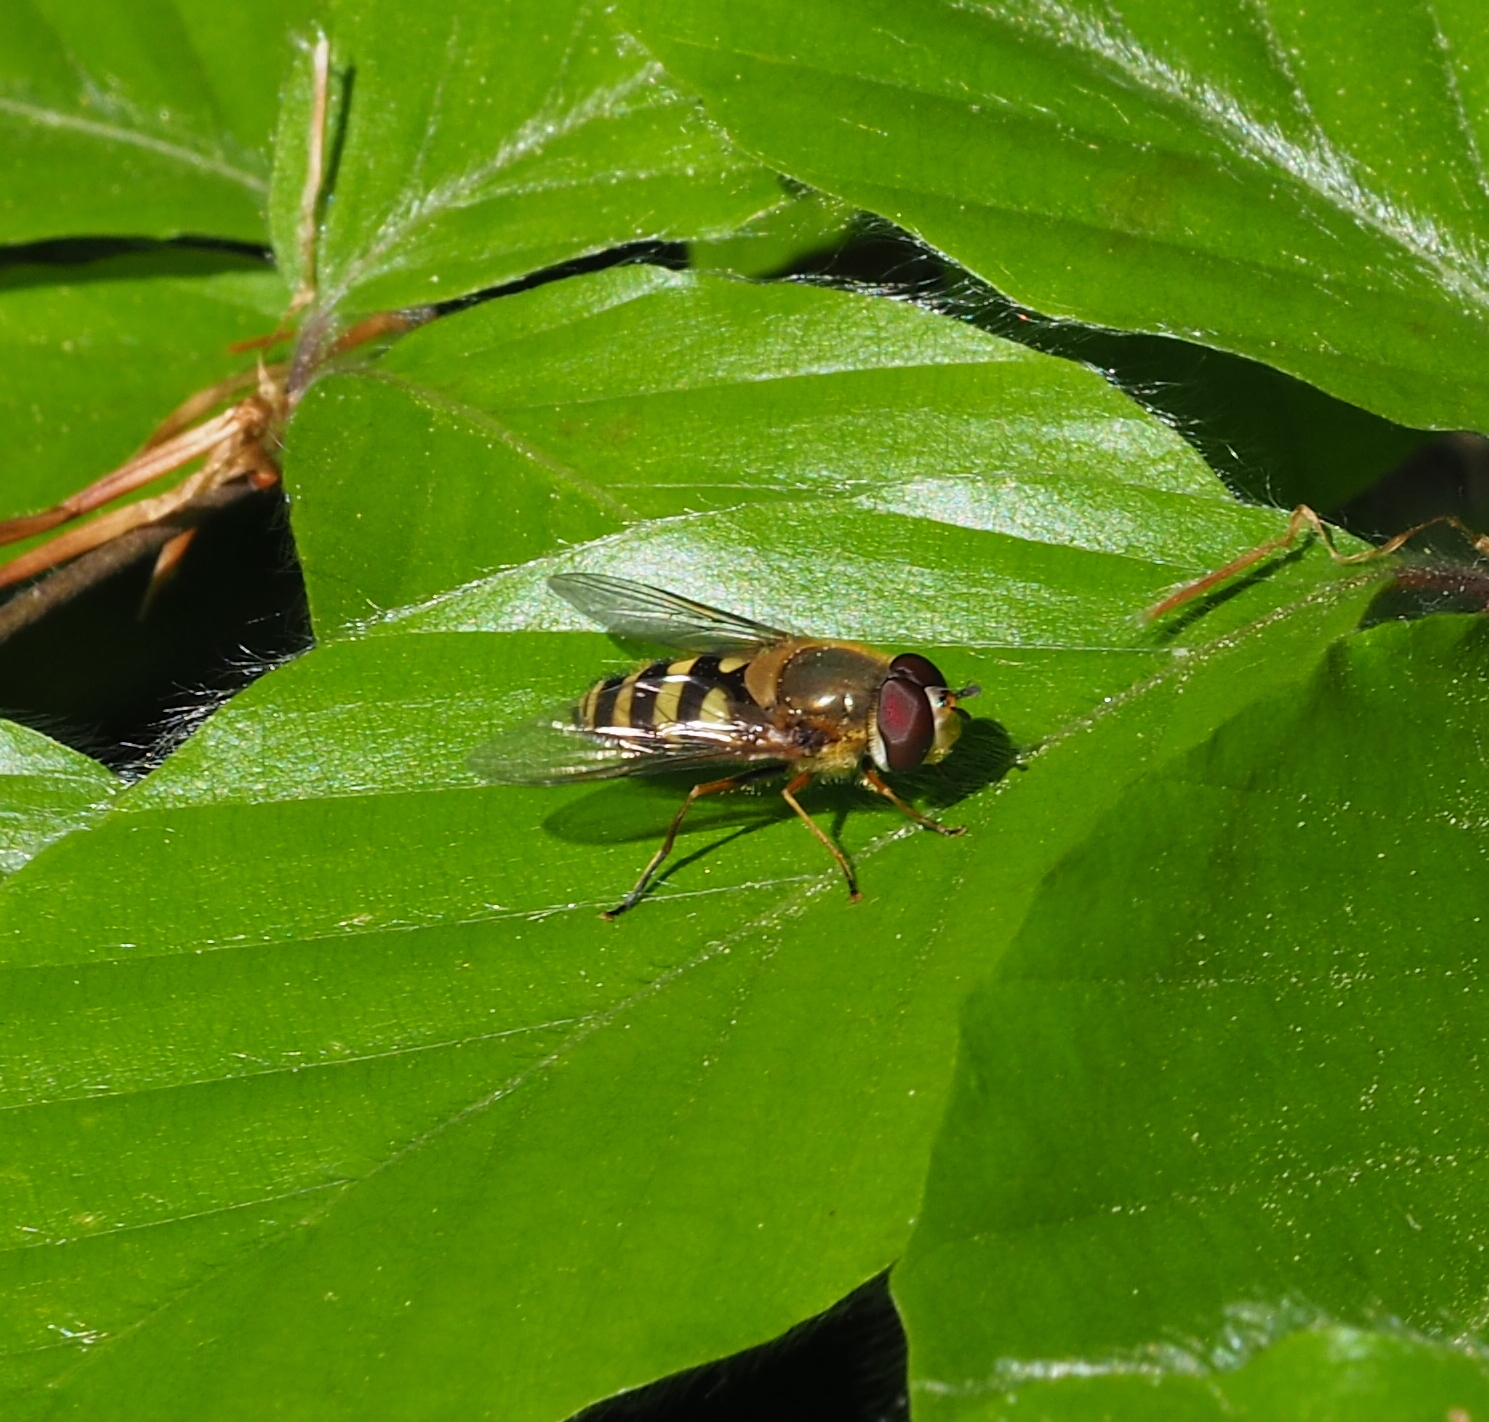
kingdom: Animalia
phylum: Arthropoda
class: Insecta
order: Diptera
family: Syrphidae
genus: Syrphus
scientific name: Syrphus
